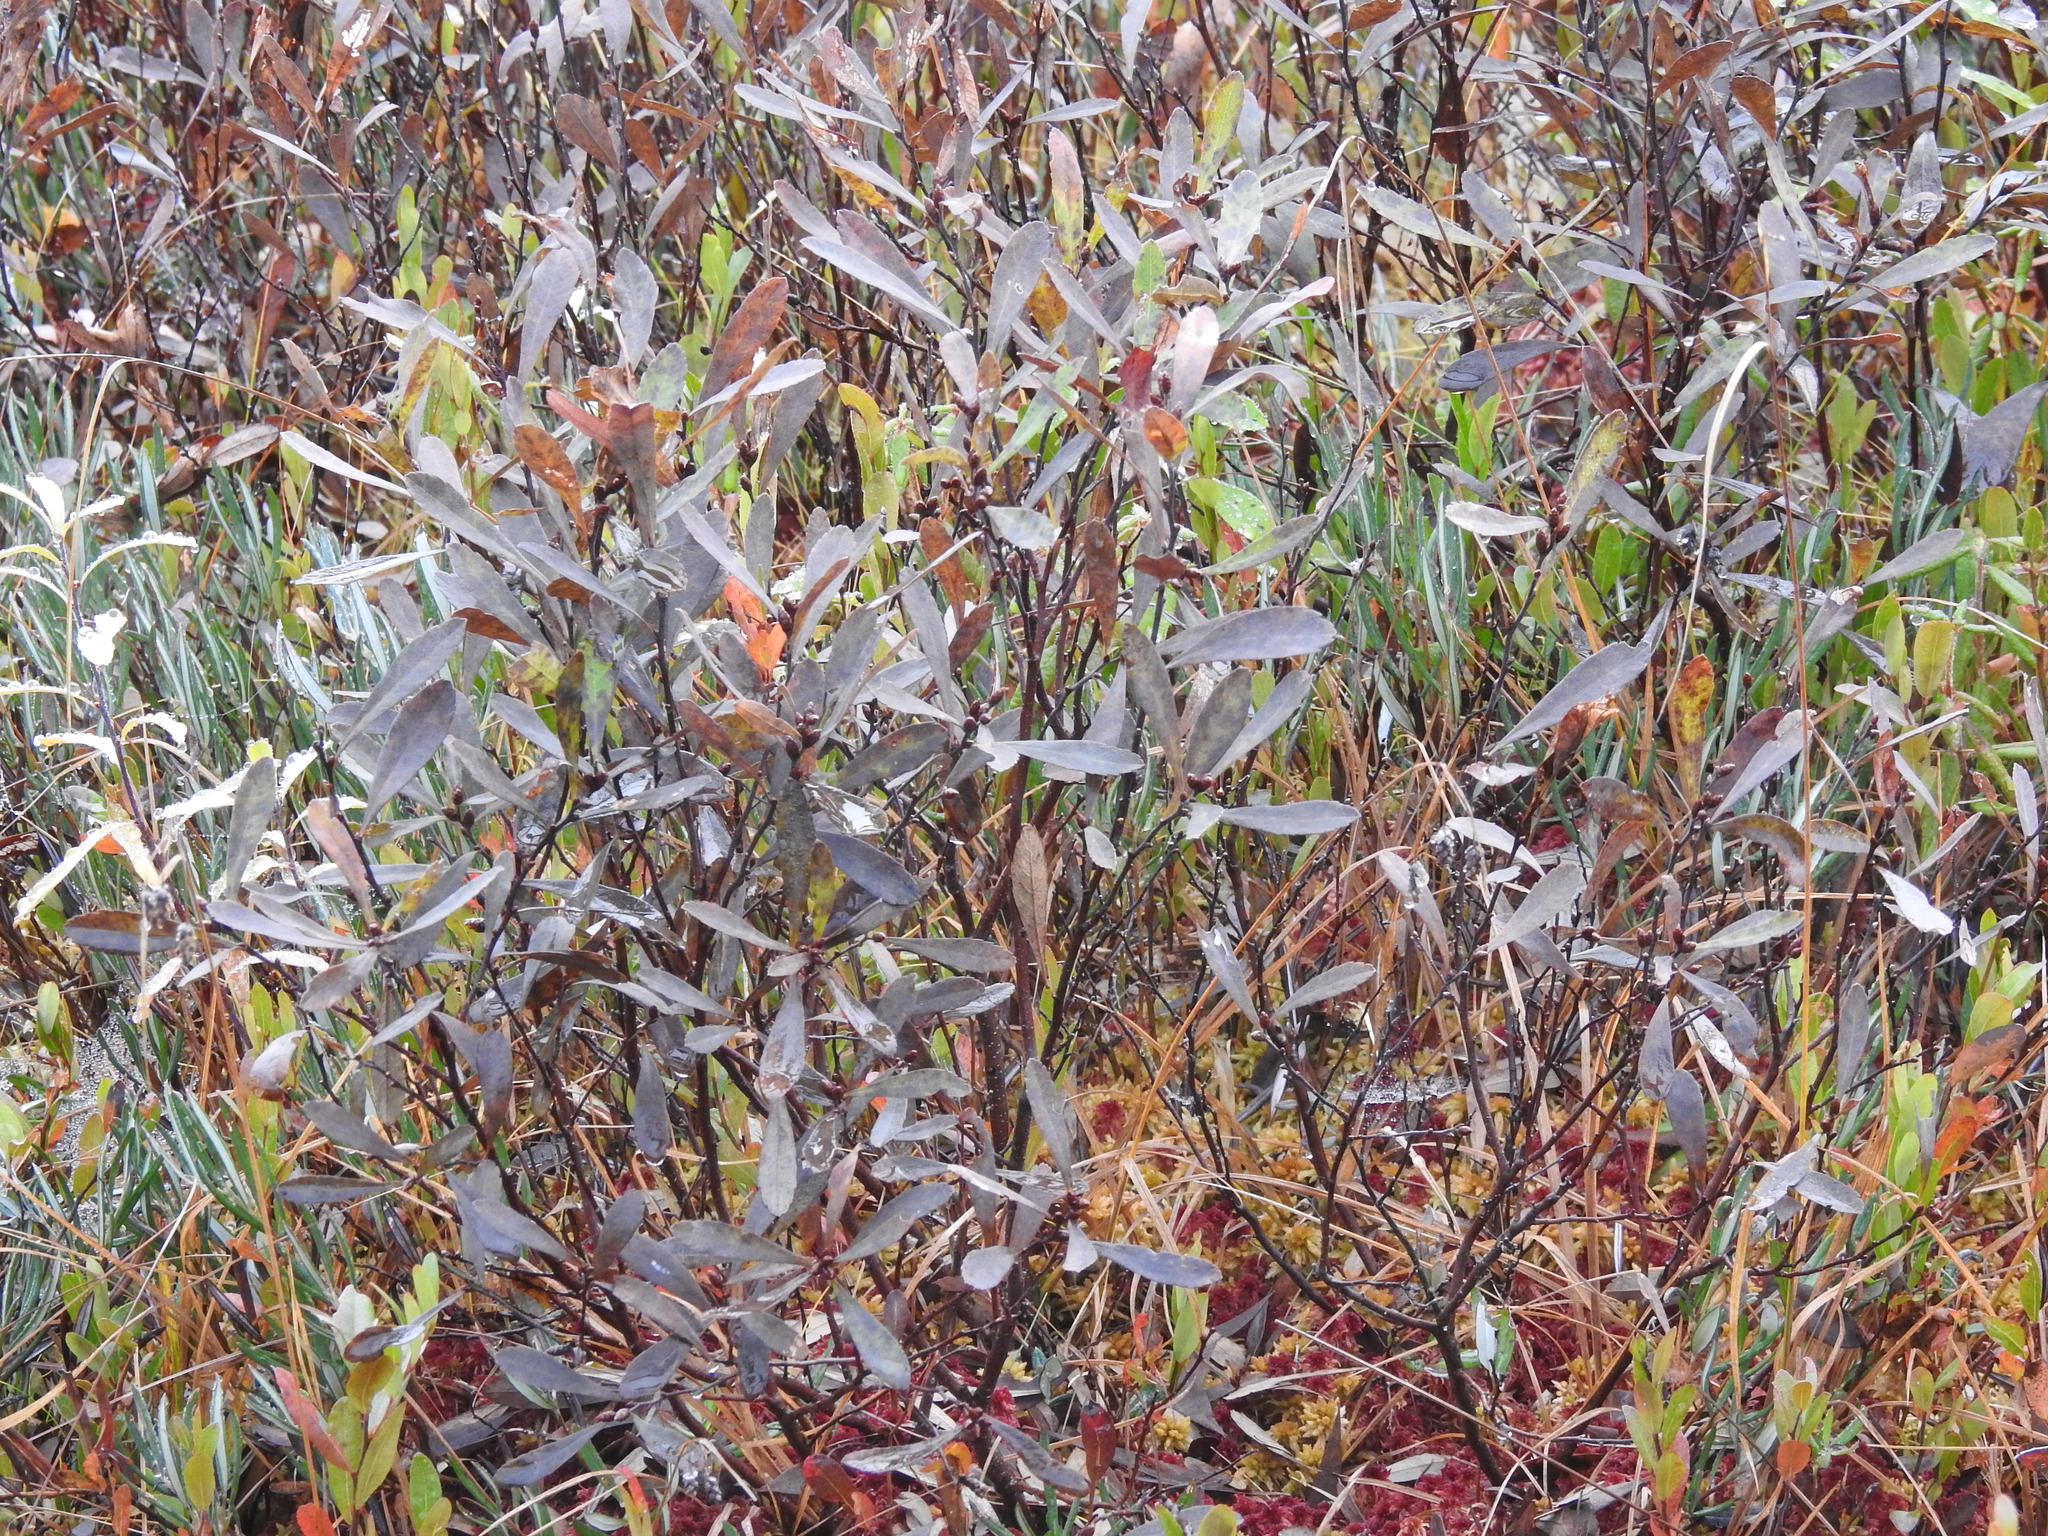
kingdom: Plantae
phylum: Tracheophyta
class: Magnoliopsida
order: Fagales
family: Myricaceae
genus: Myrica
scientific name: Myrica gale
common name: Sweet gale
